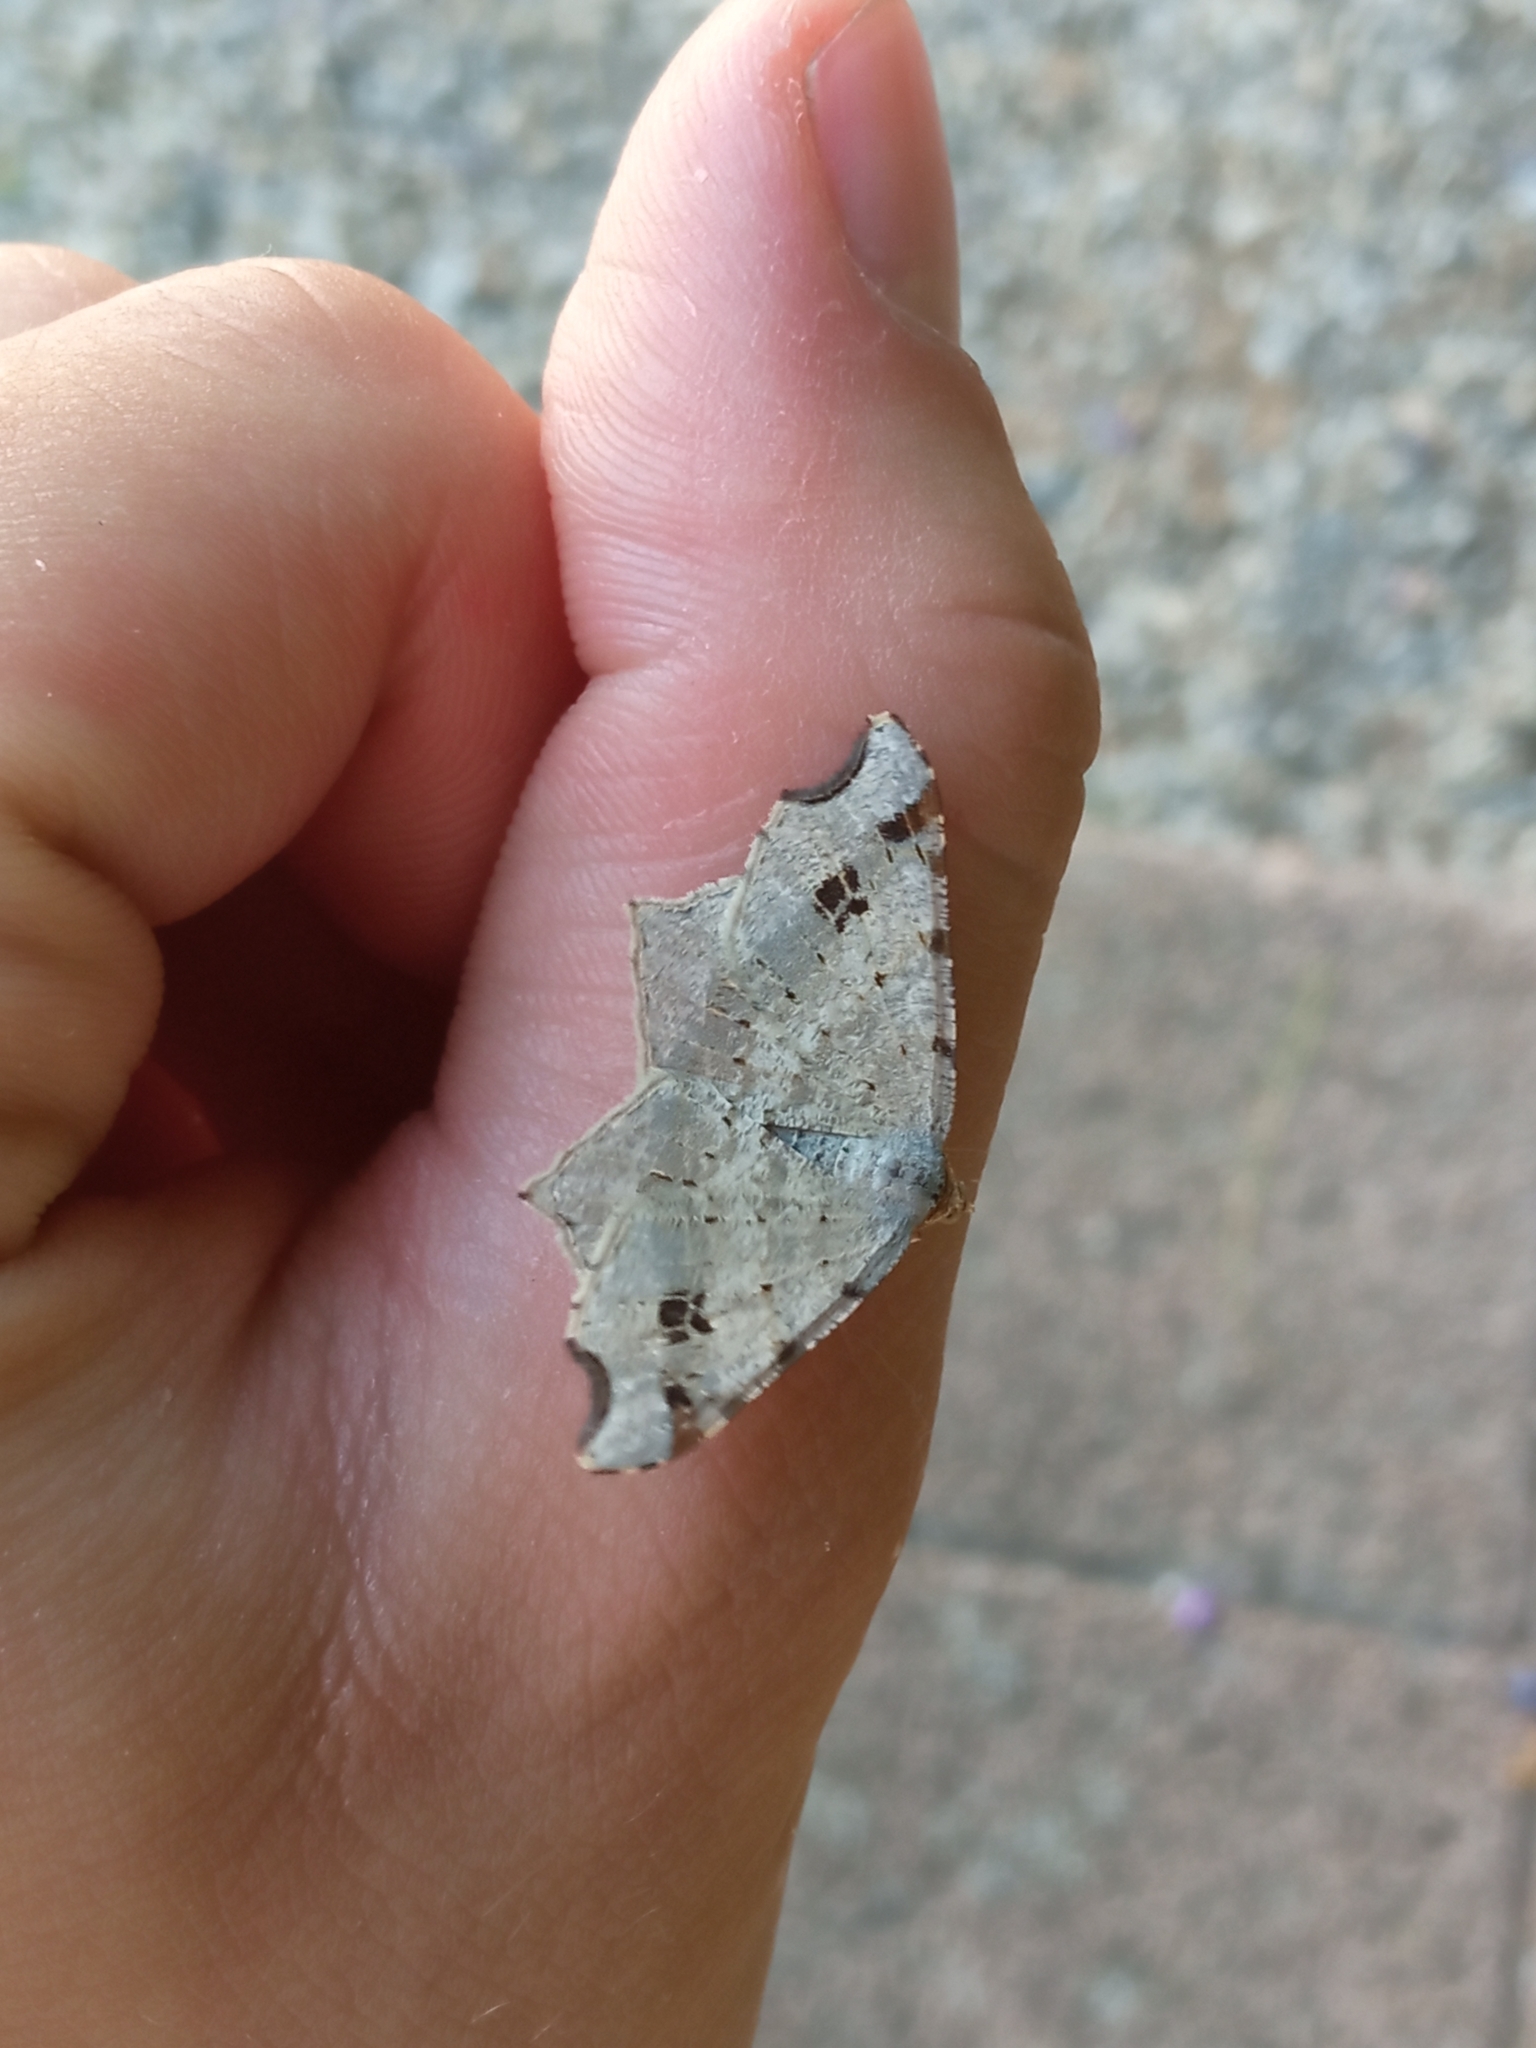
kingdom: Animalia
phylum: Arthropoda
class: Insecta
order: Lepidoptera
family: Geometridae
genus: Macaria
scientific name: Macaria alternata
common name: Sharp-angled peacock
